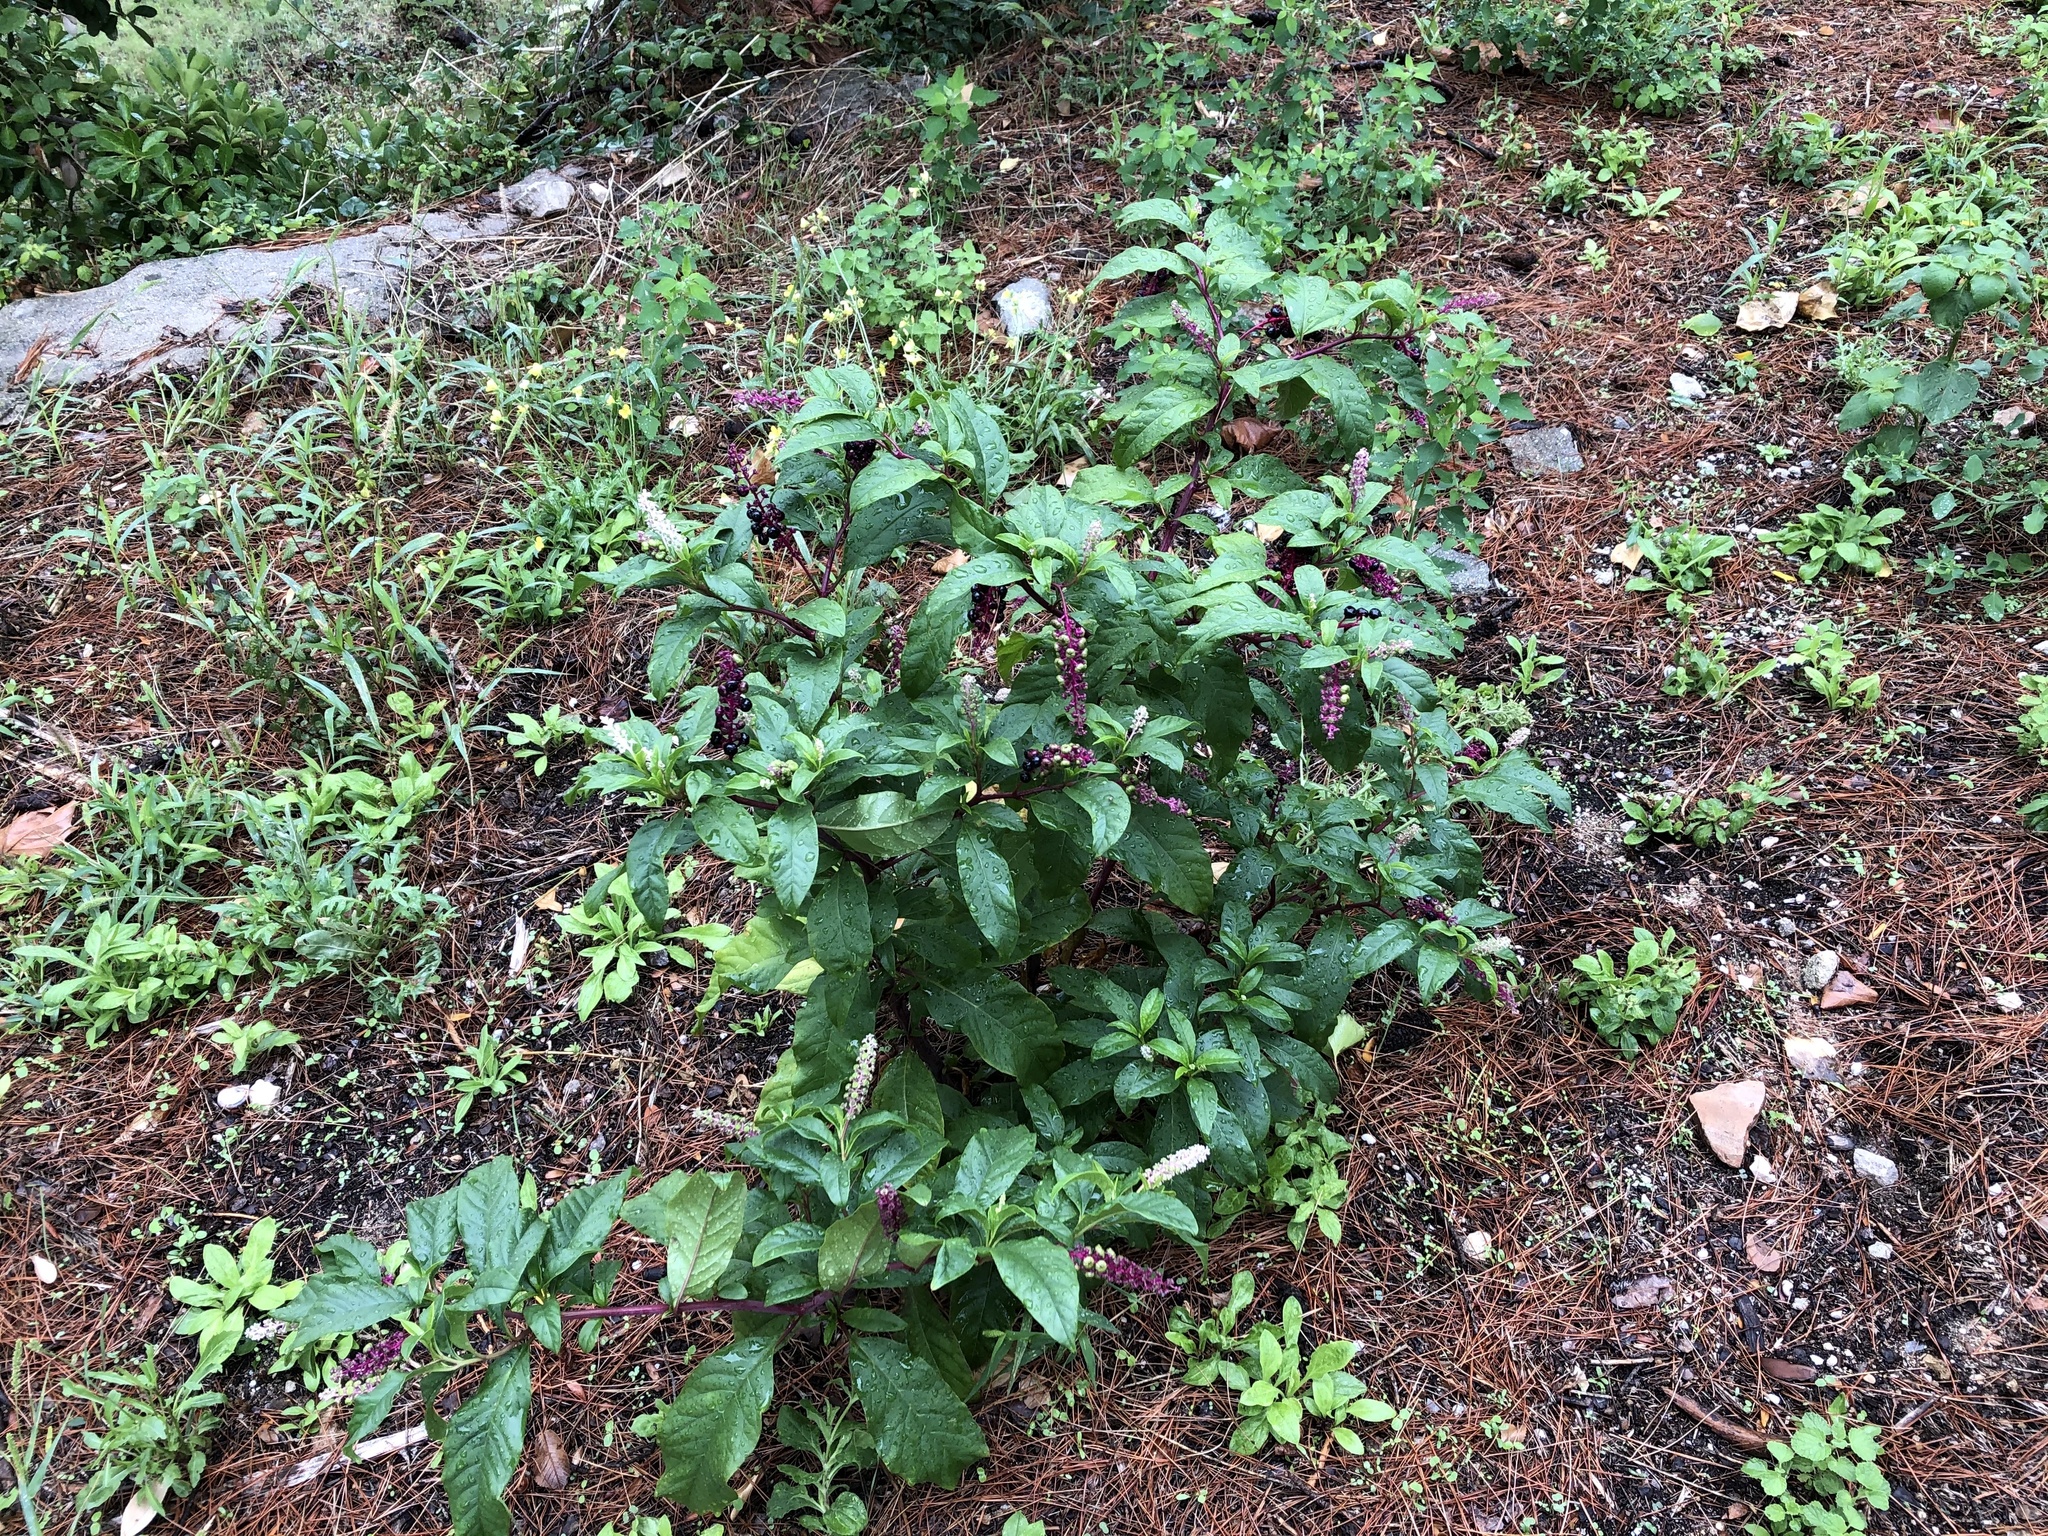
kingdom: Plantae
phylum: Tracheophyta
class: Magnoliopsida
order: Caryophyllales
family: Phytolaccaceae
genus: Phytolacca
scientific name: Phytolacca americana
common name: American pokeweed
